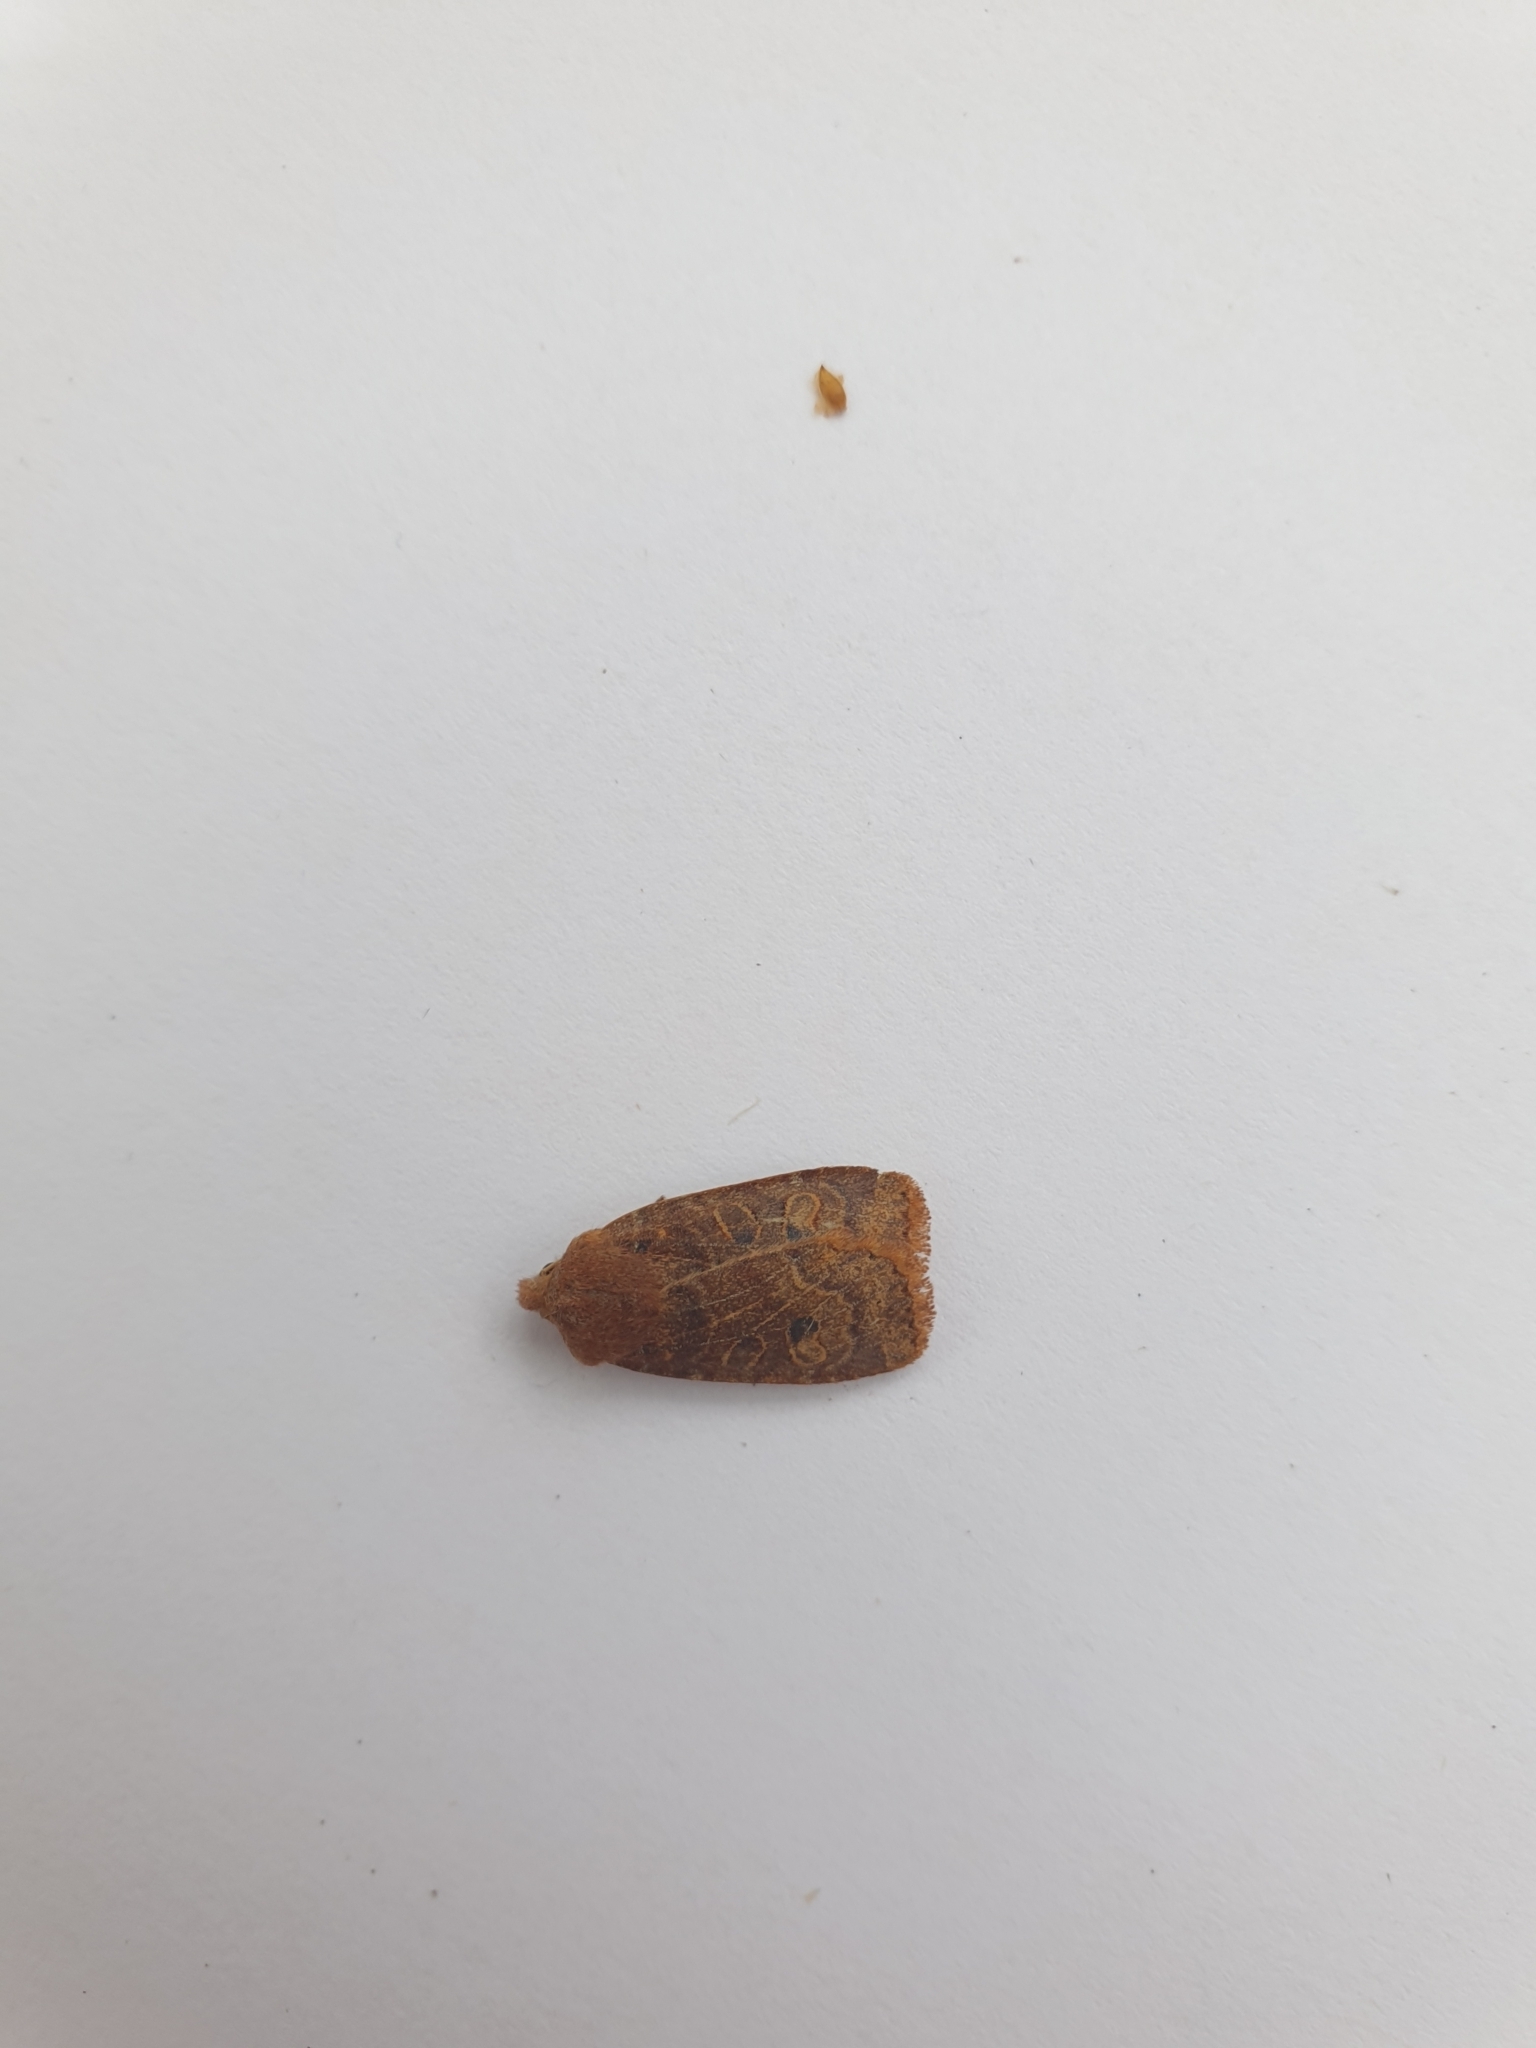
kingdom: Animalia
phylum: Arthropoda
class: Insecta
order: Lepidoptera
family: Noctuidae
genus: Conistra
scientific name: Conistra vaccinii
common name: Chestnut
